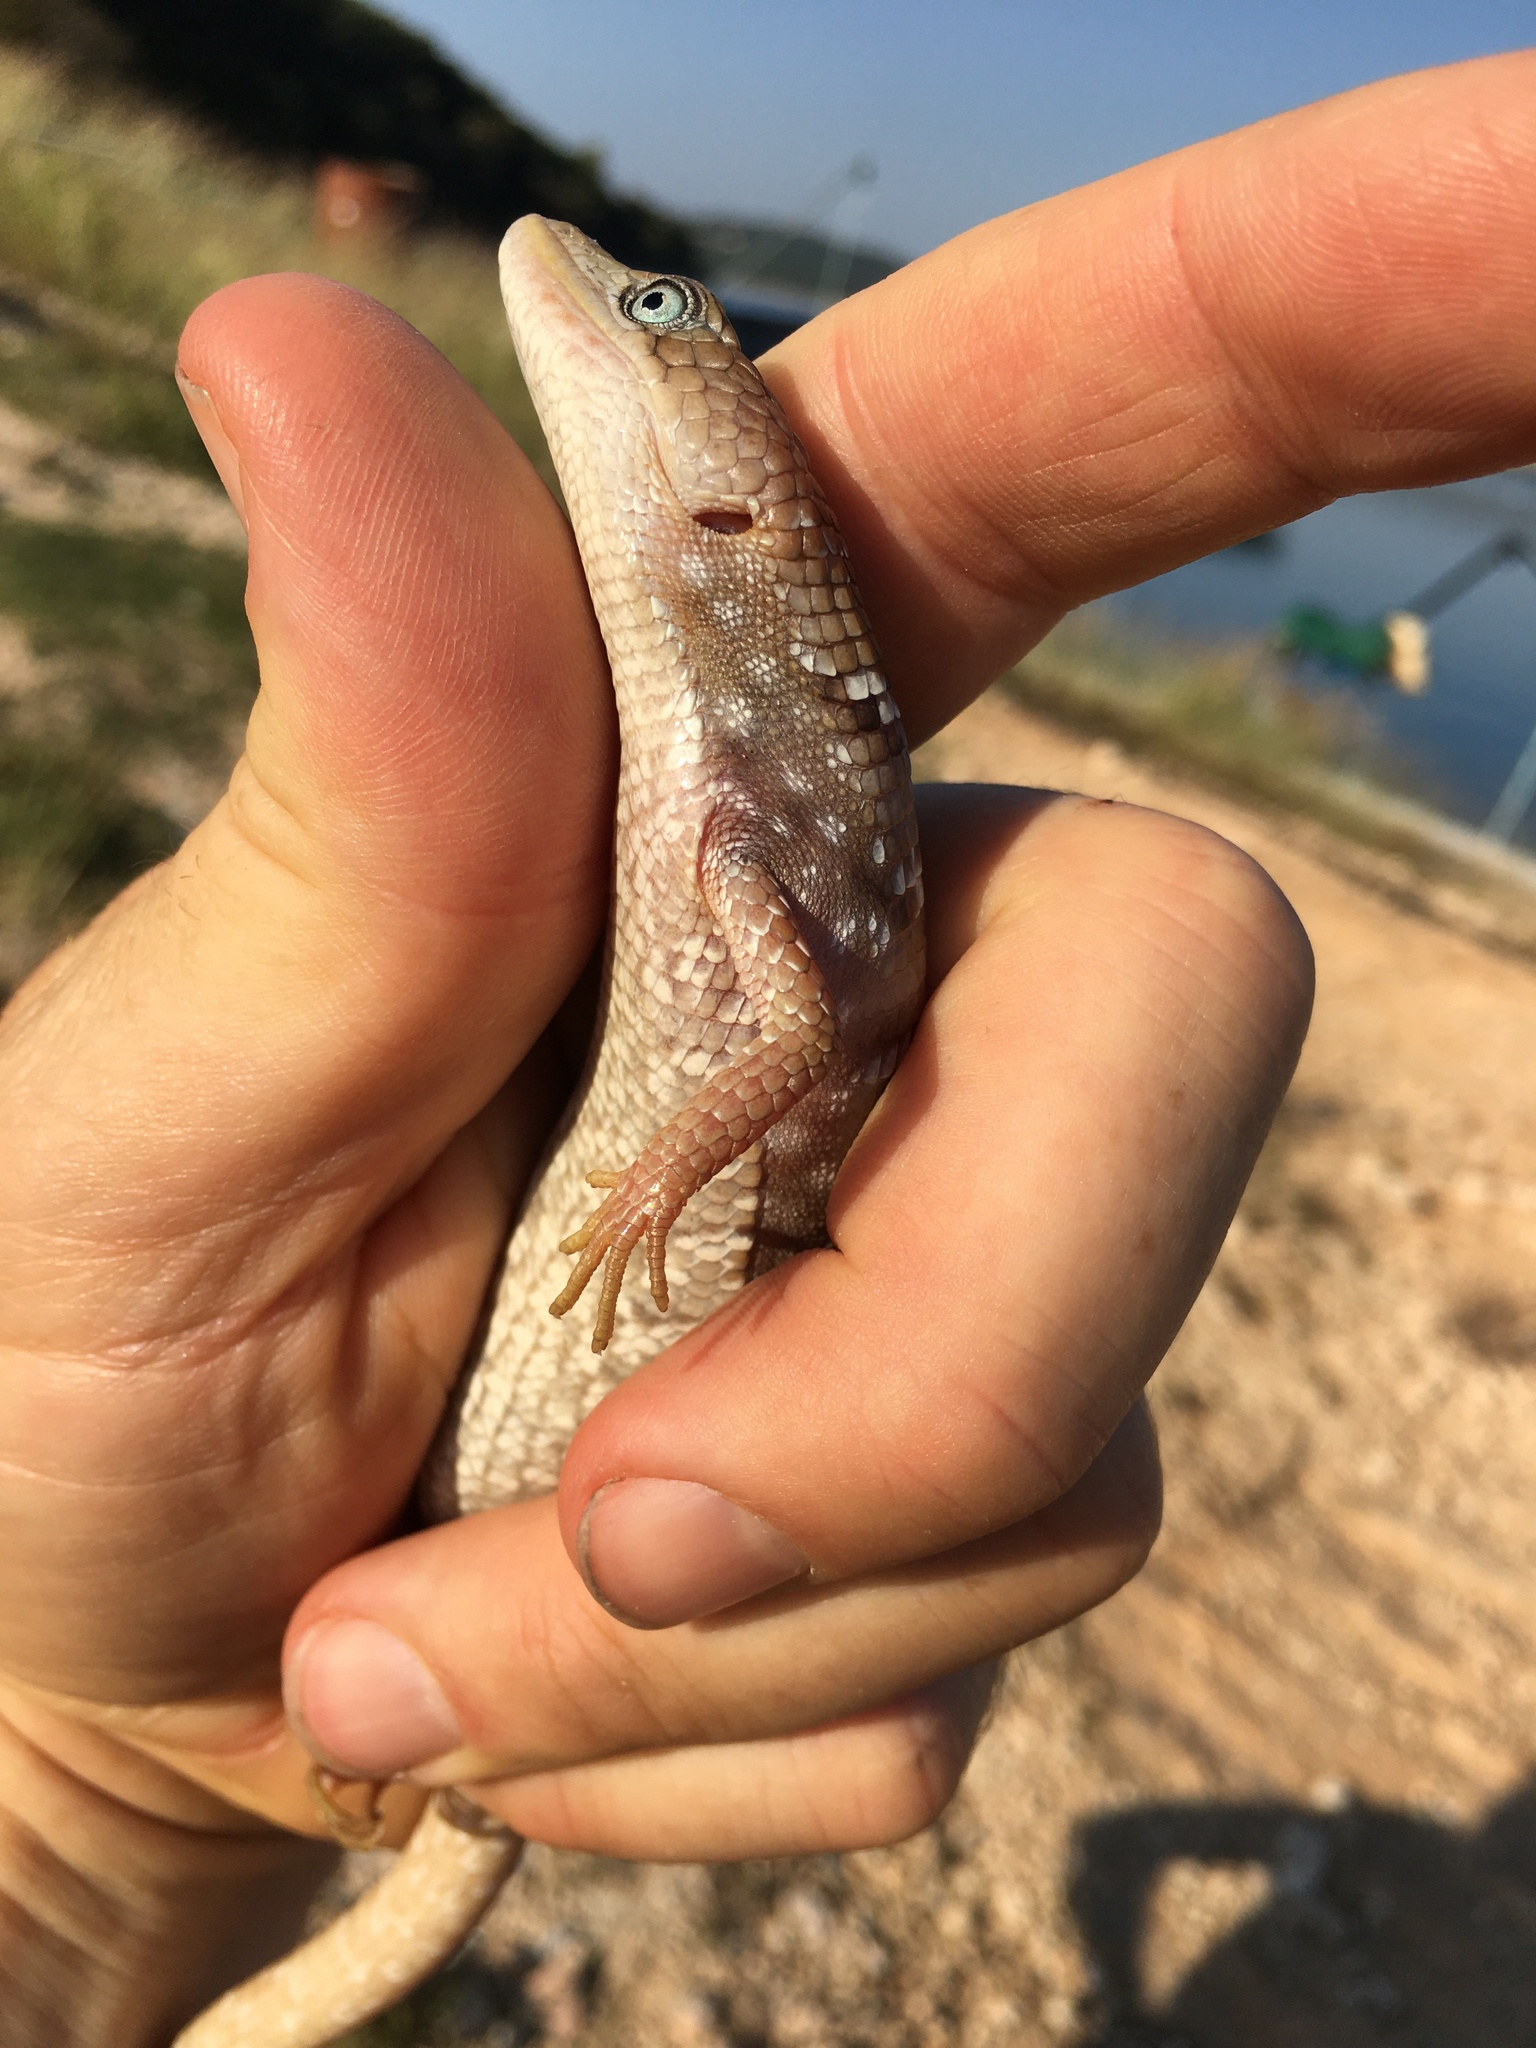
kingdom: Animalia
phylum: Chordata
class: Squamata
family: Anguidae
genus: Gerrhonotus
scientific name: Gerrhonotus infernalis
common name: Texas alligator lizard
